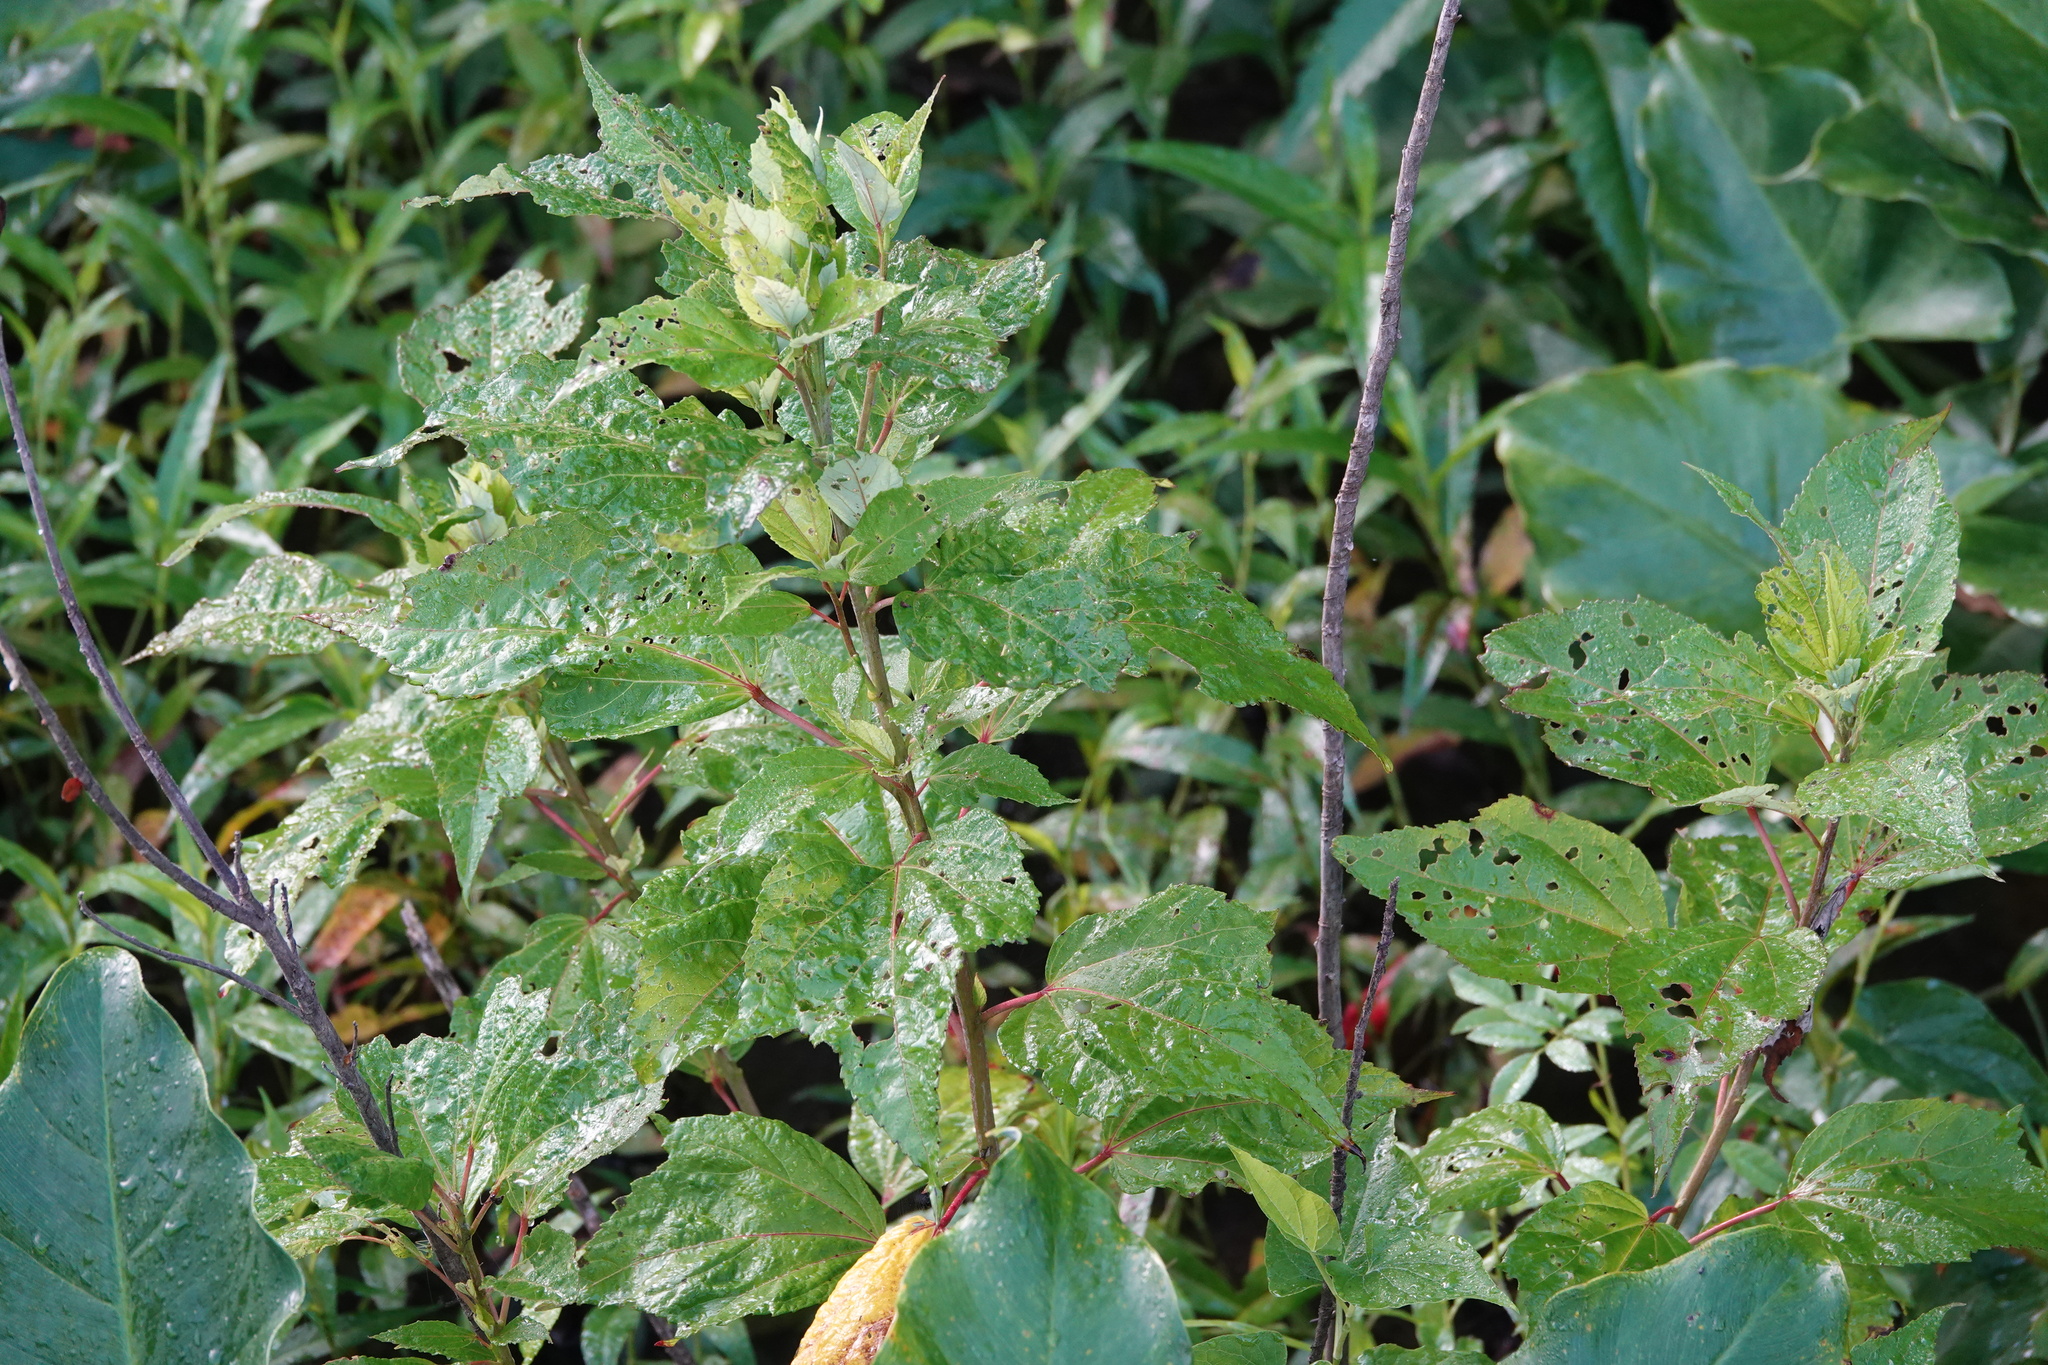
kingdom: Plantae
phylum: Tracheophyta
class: Magnoliopsida
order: Malvales
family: Malvaceae
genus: Hibiscus
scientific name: Hibiscus moscheutos
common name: Common rose-mallow
